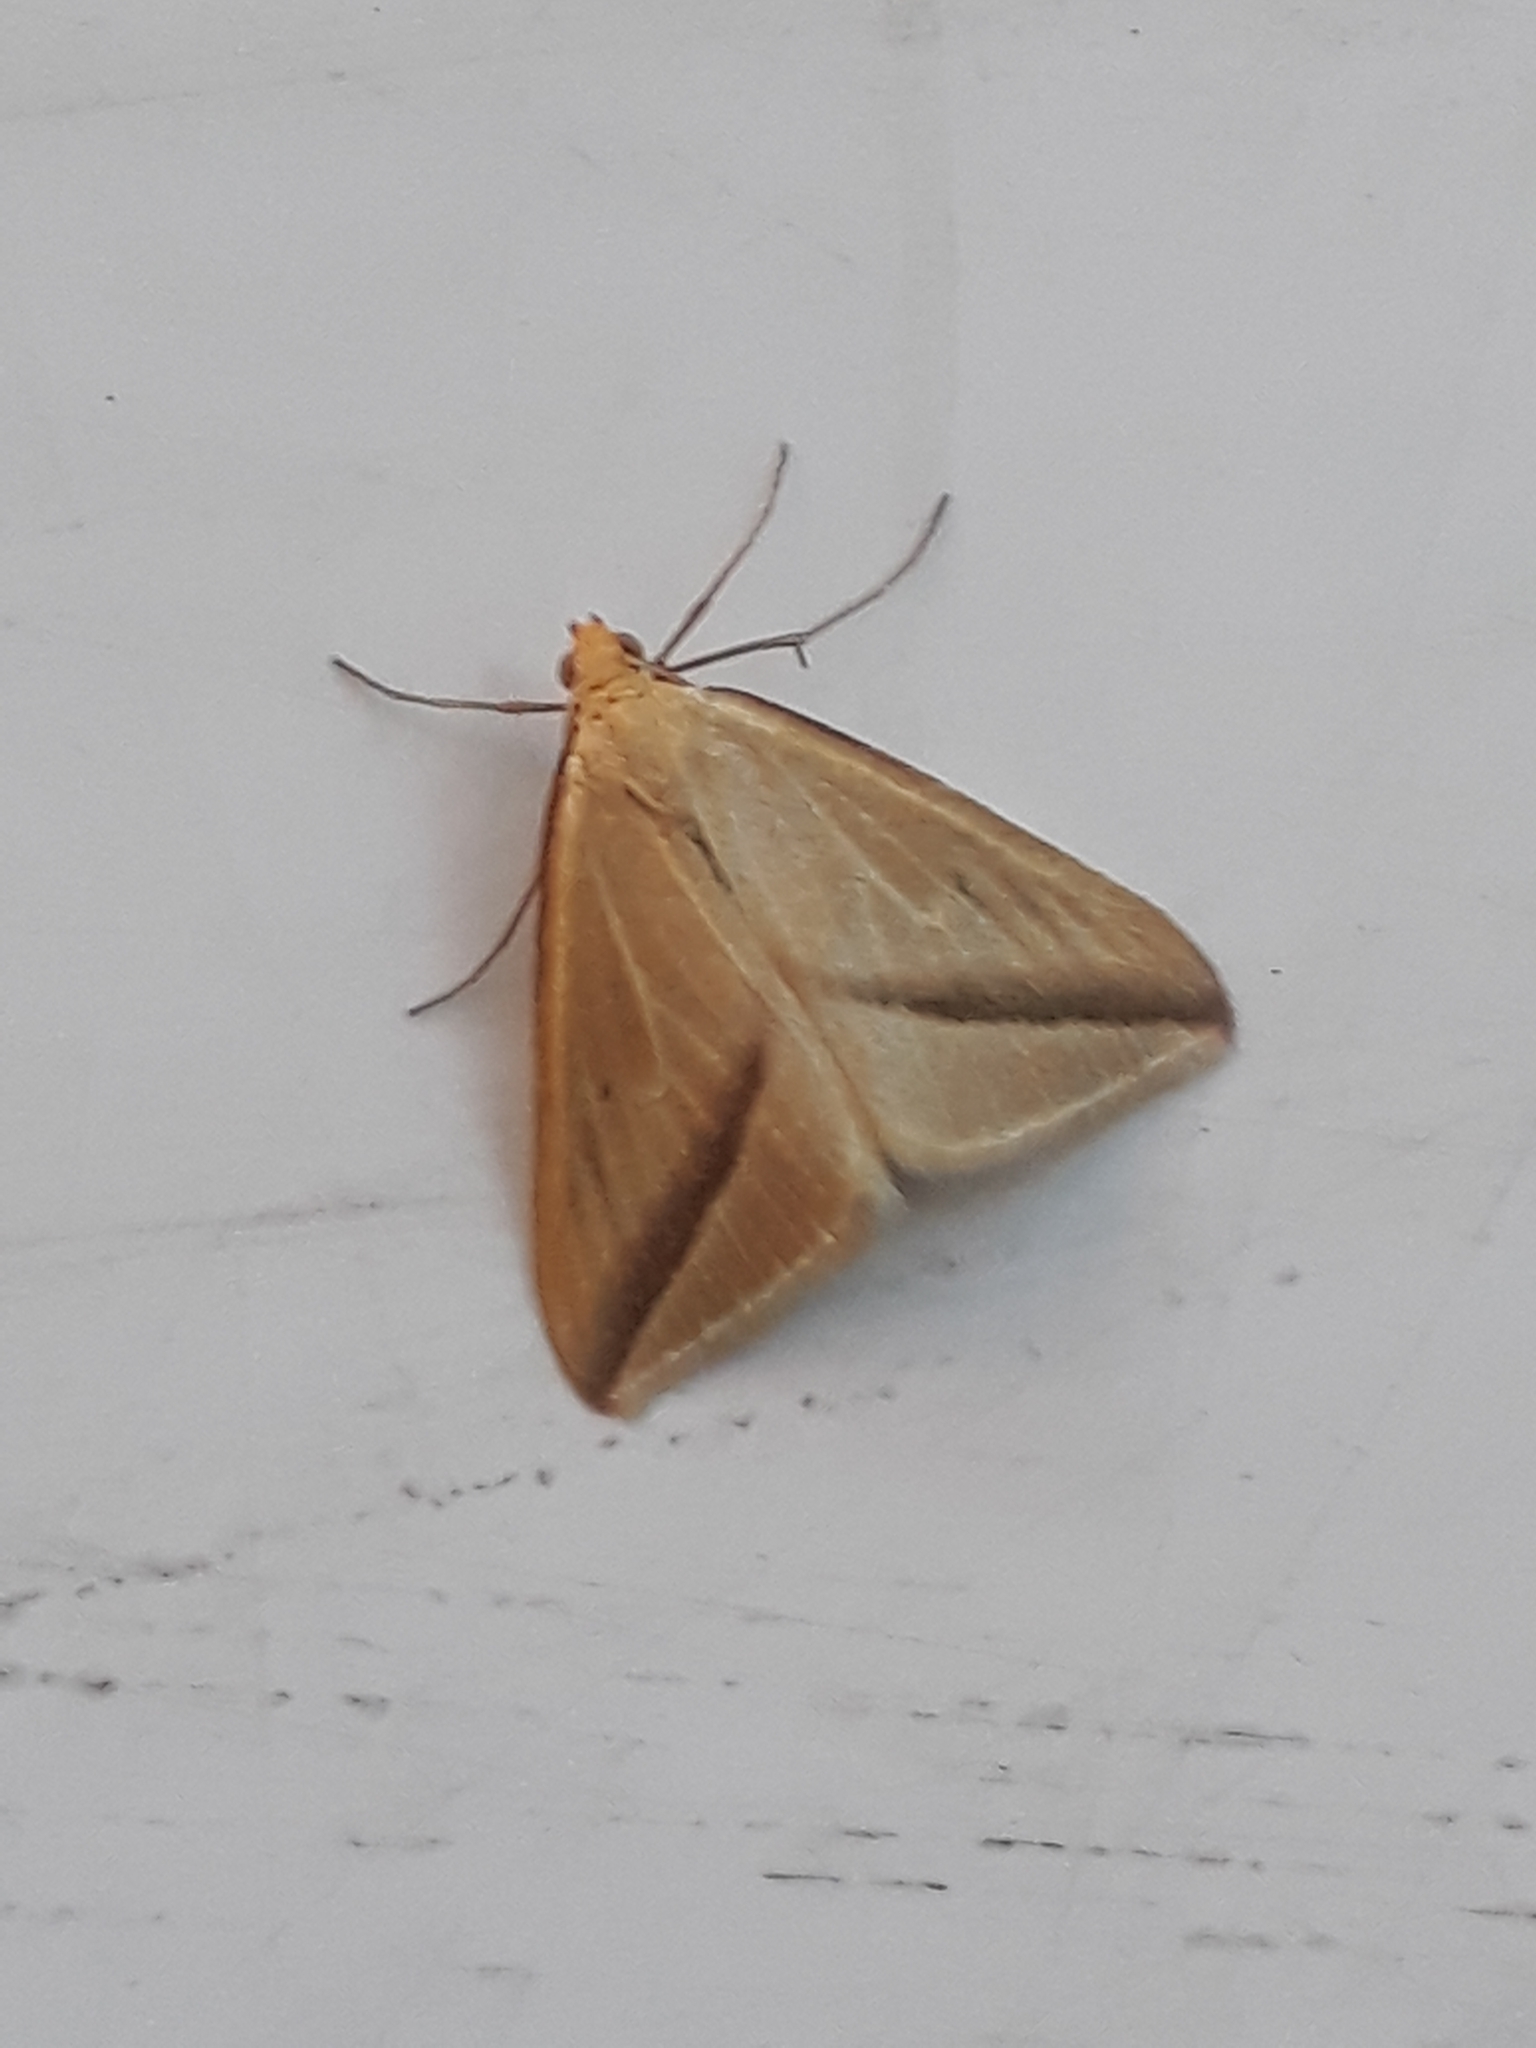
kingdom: Animalia
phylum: Arthropoda
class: Insecta
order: Lepidoptera
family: Geometridae
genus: Rhodometra
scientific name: Rhodometra sacraria
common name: Vestal
